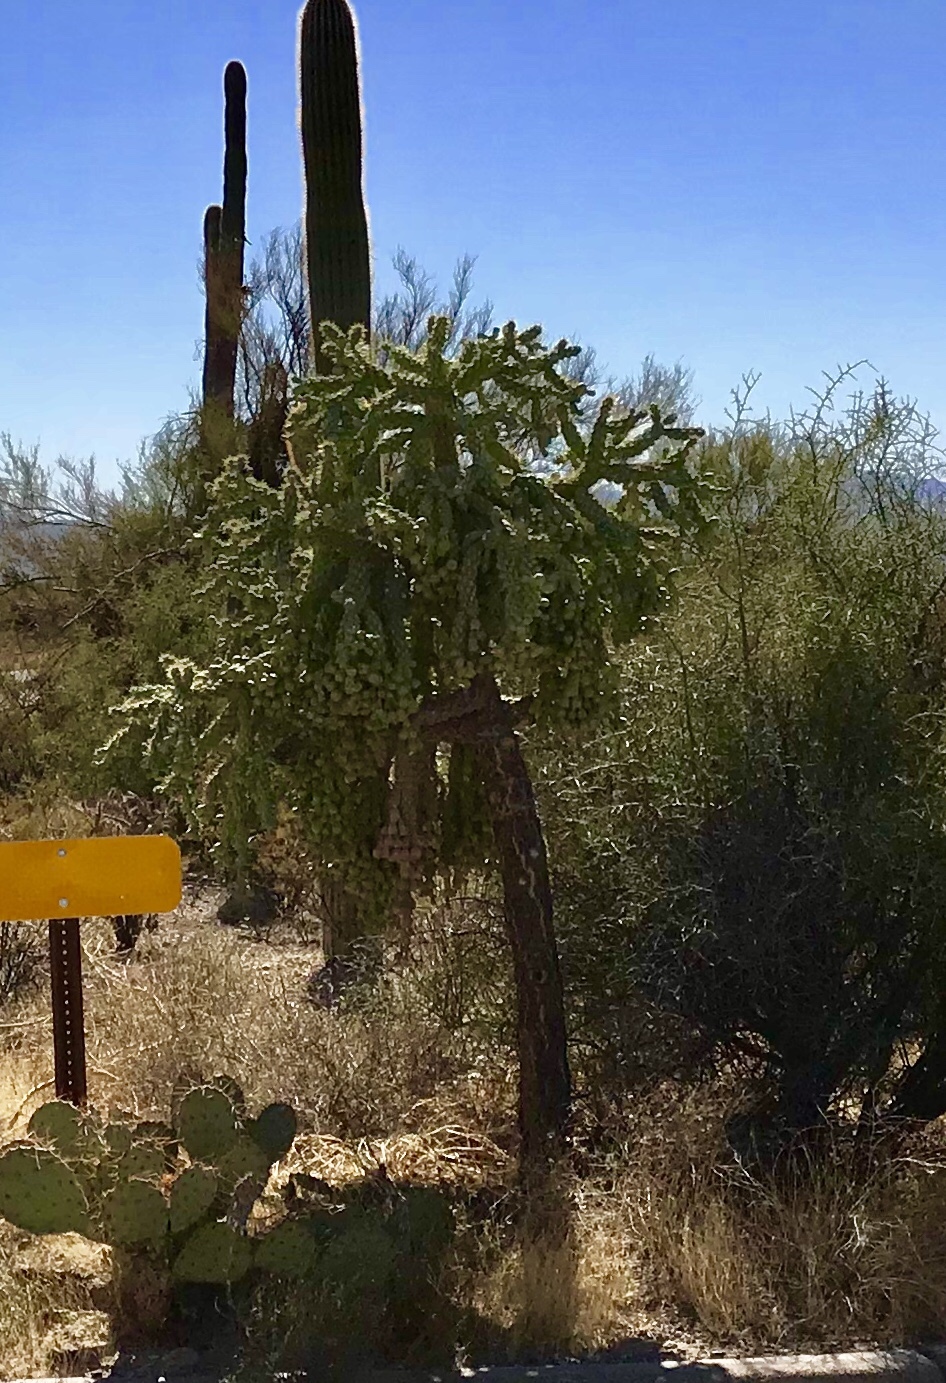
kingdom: Plantae
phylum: Tracheophyta
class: Magnoliopsida
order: Caryophyllales
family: Cactaceae
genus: Cylindropuntia
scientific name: Cylindropuntia fulgida
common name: Jumping cholla
